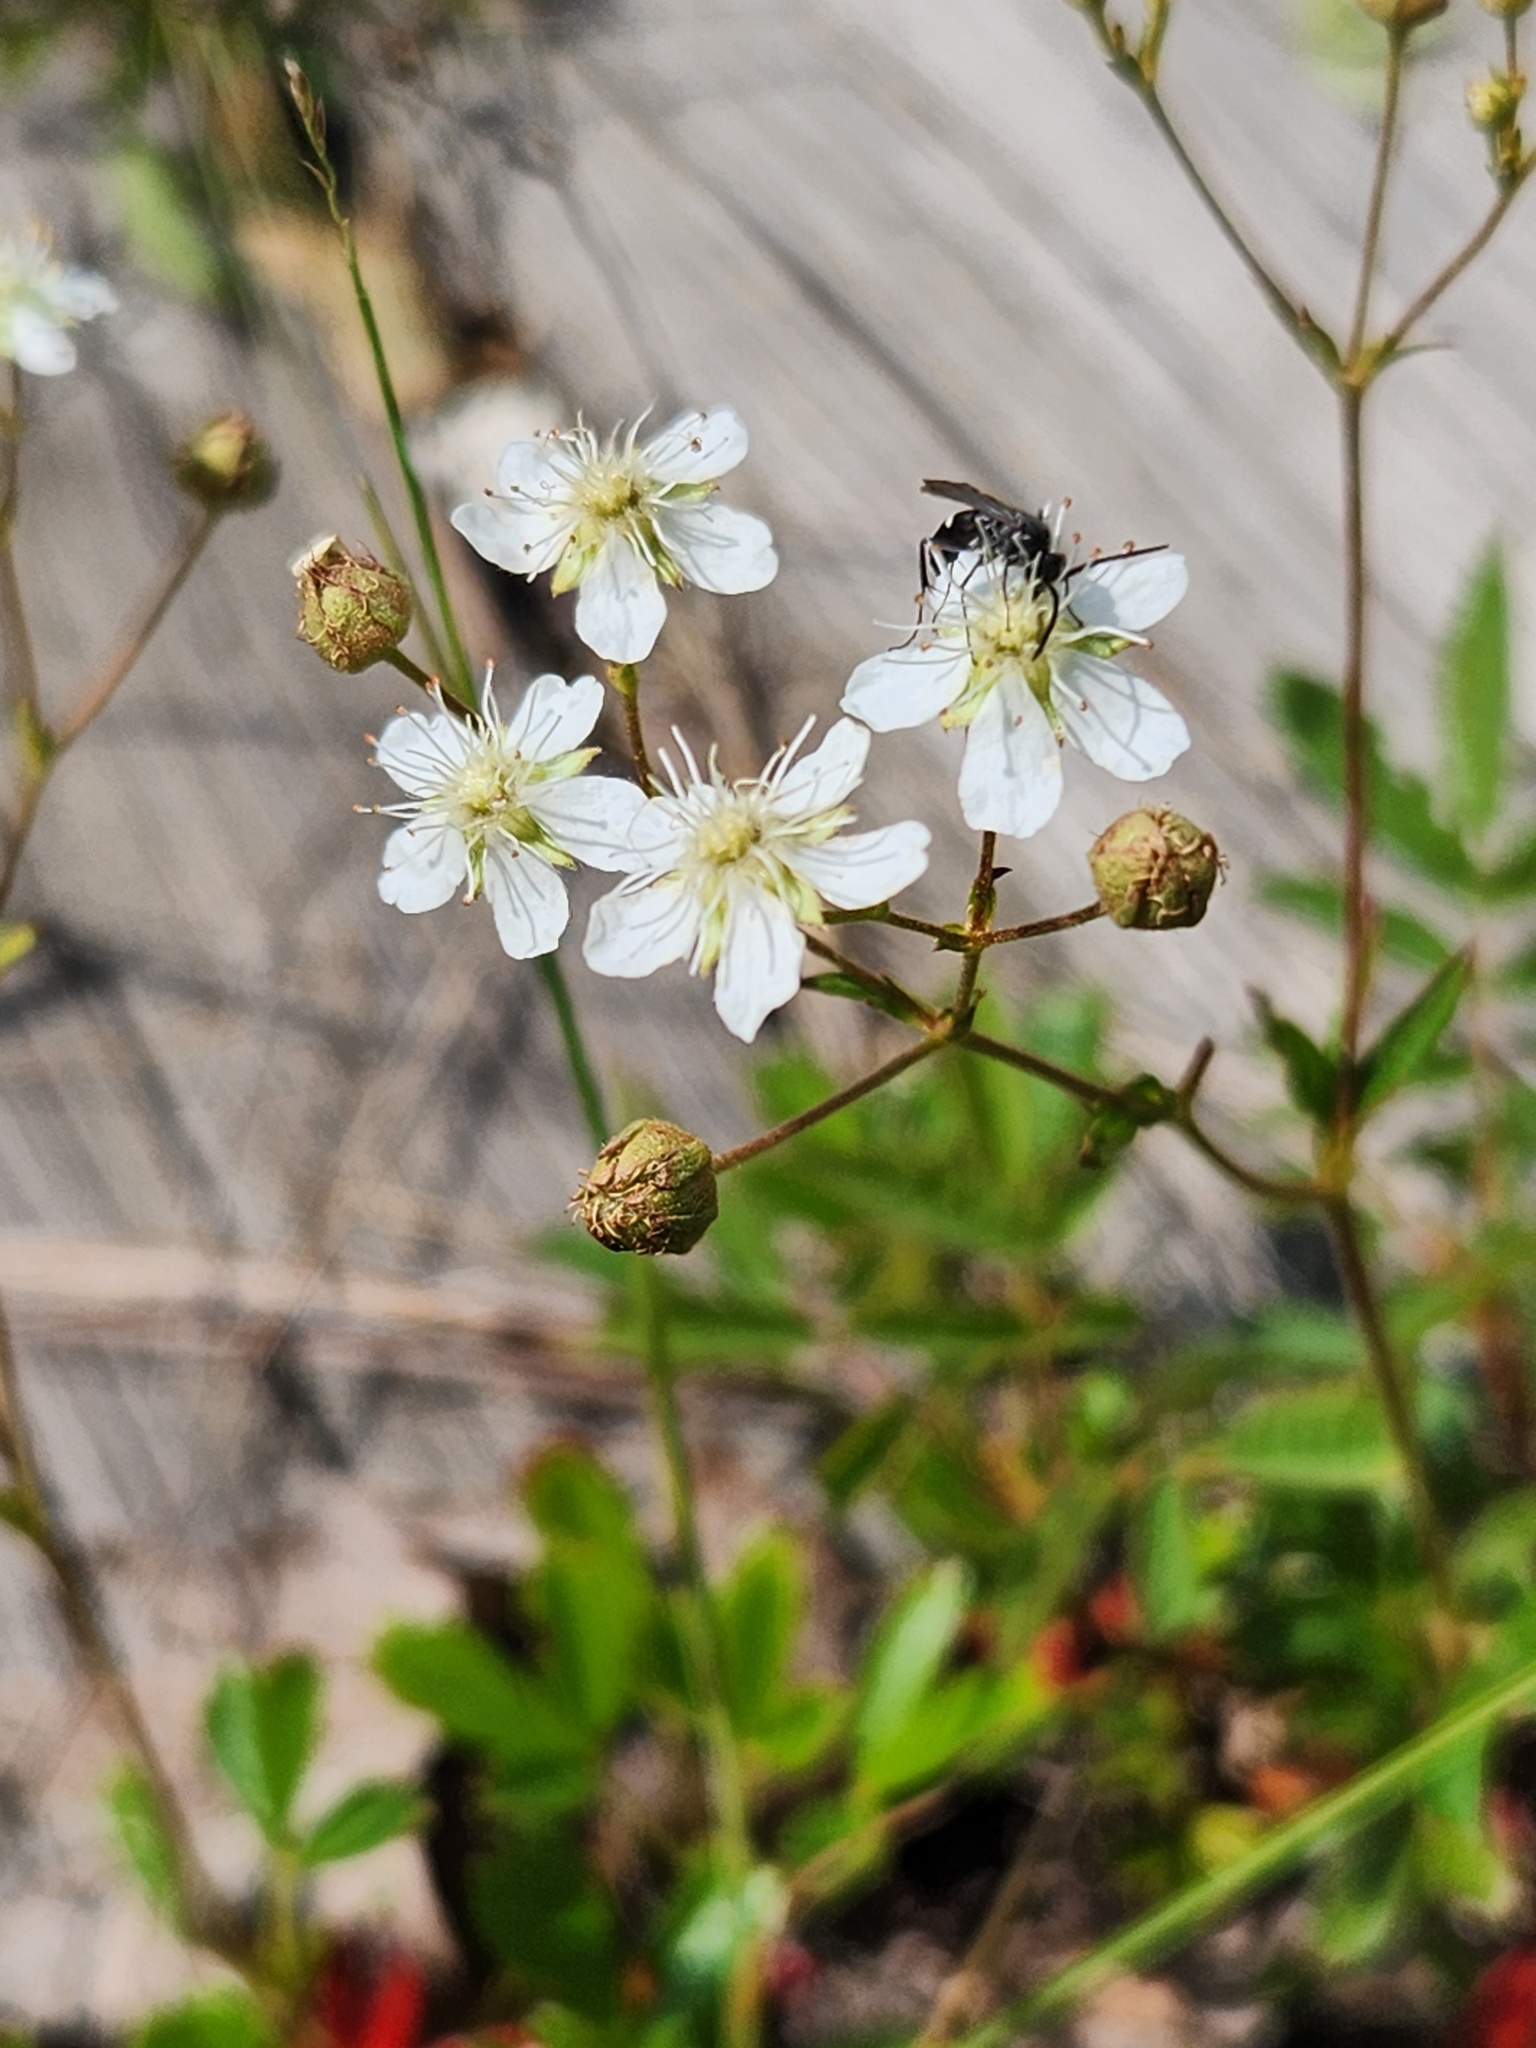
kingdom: Plantae
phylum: Tracheophyta
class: Magnoliopsida
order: Rosales
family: Rosaceae
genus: Sibbaldia
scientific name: Sibbaldia tridentata
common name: Three-toothed cinquefoil
